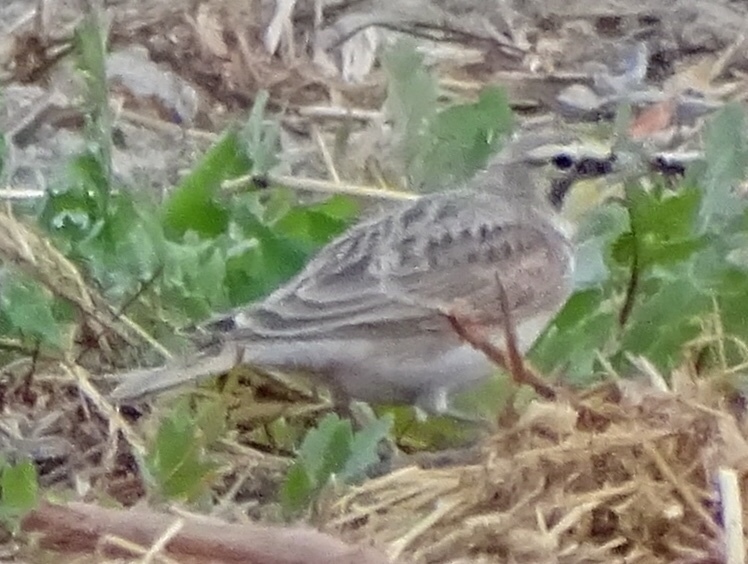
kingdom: Animalia
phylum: Chordata
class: Aves
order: Passeriformes
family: Alaudidae
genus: Eremophila
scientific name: Eremophila alpestris
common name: Horned lark
